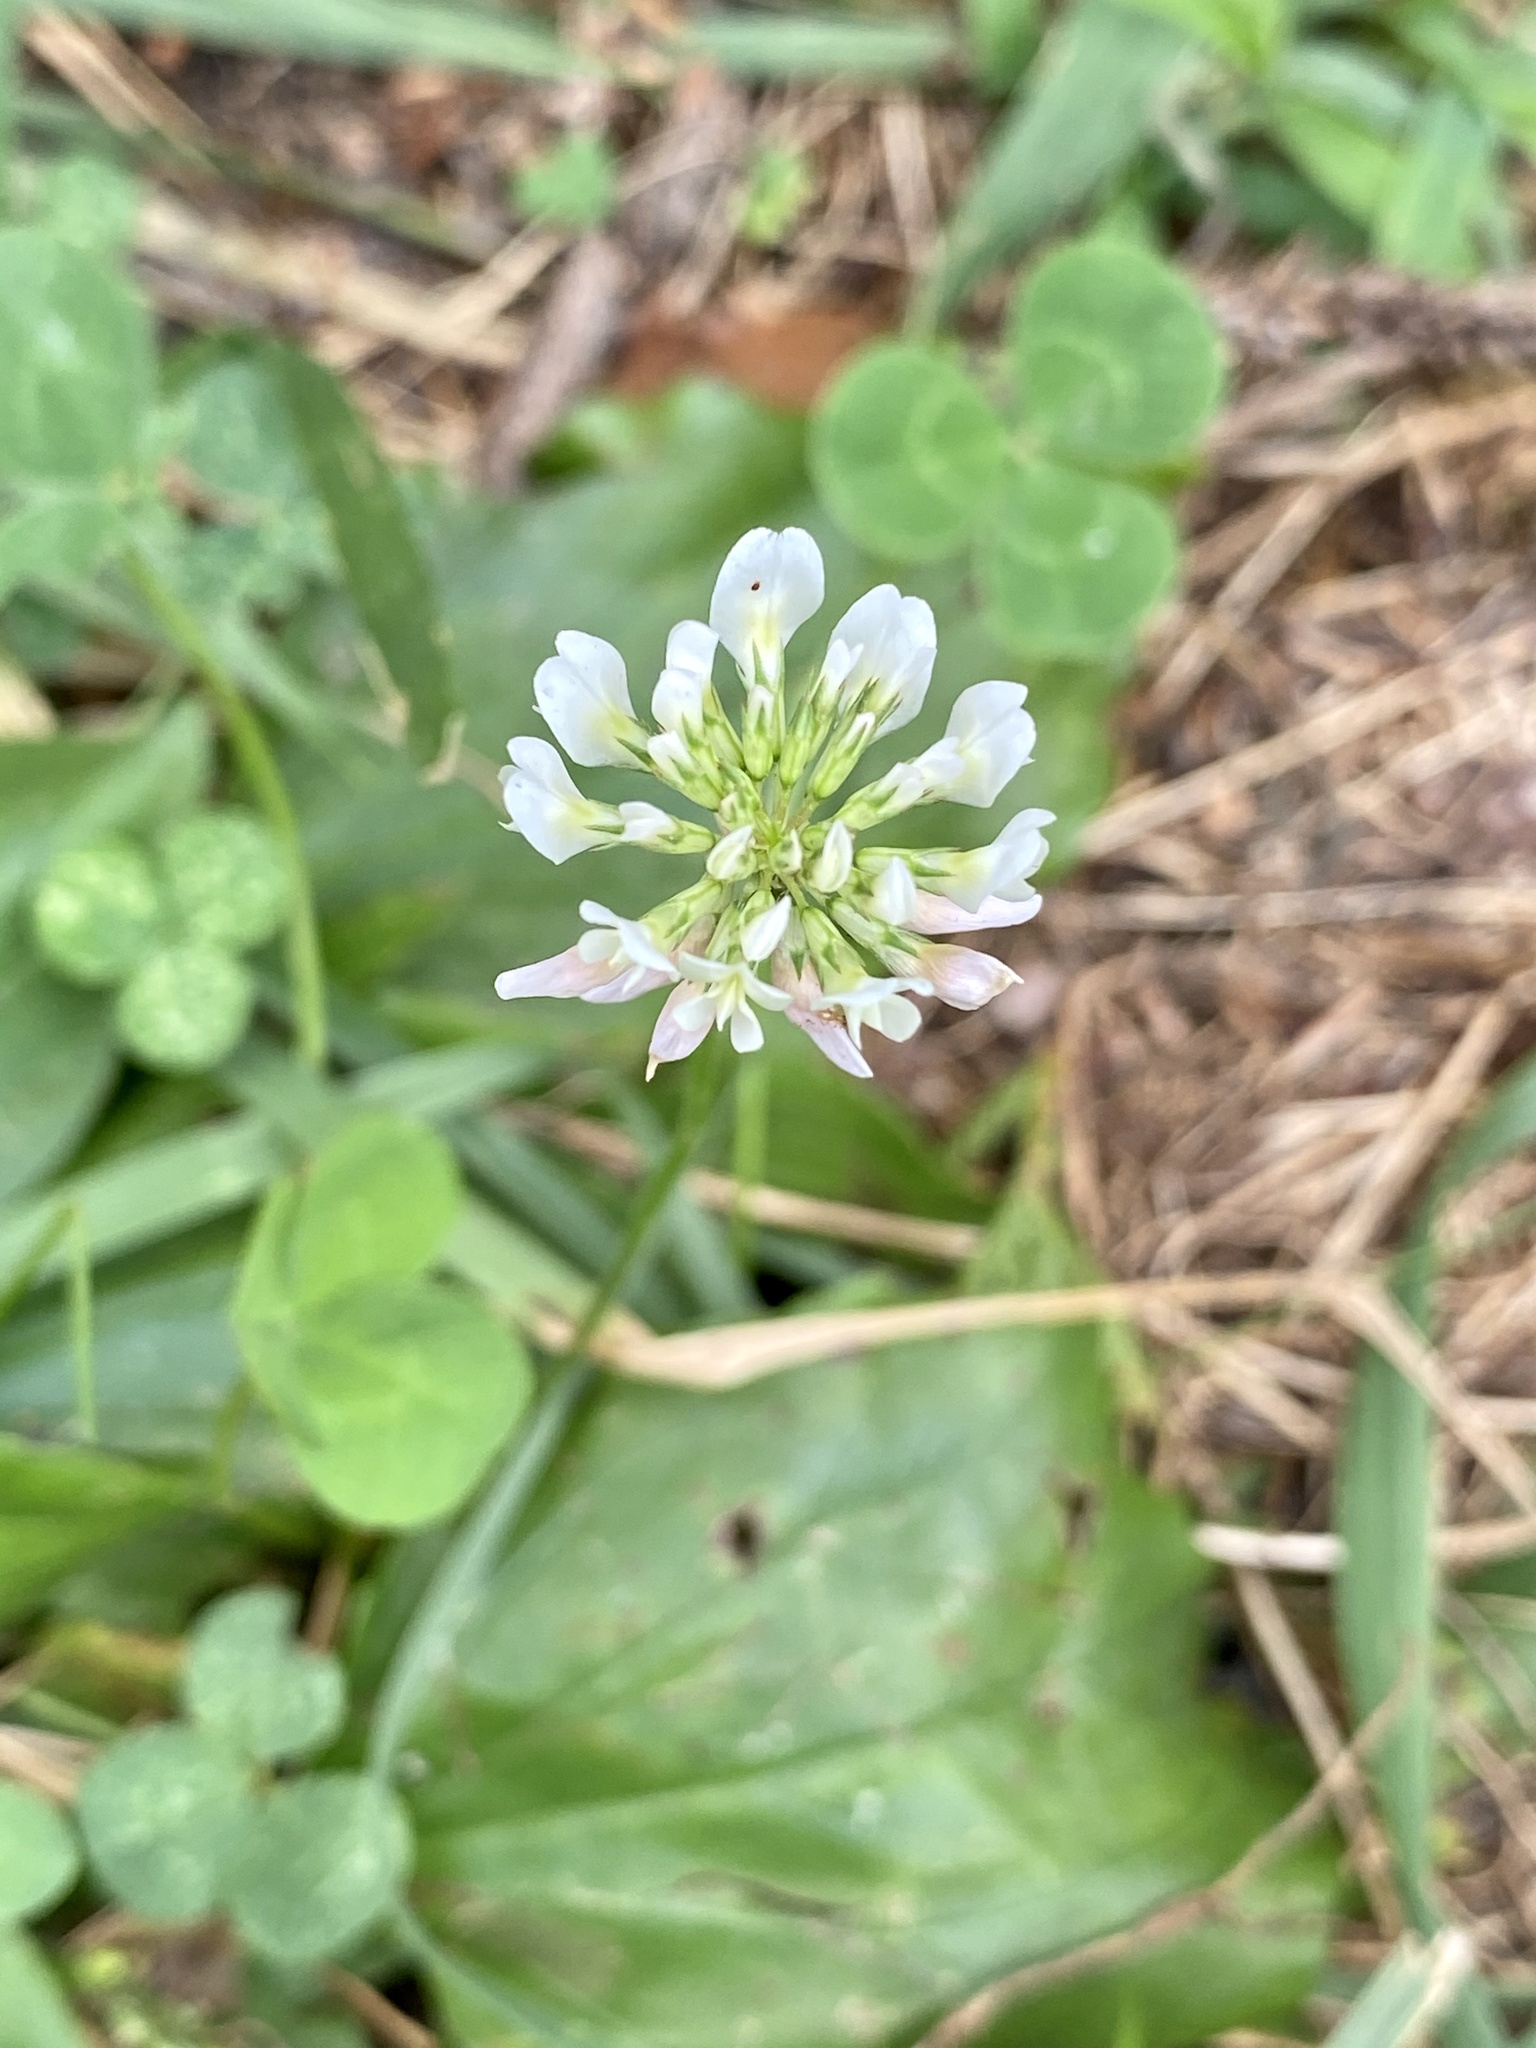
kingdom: Plantae
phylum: Tracheophyta
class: Magnoliopsida
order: Fabales
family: Fabaceae
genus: Trifolium
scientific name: Trifolium repens
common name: White clover
